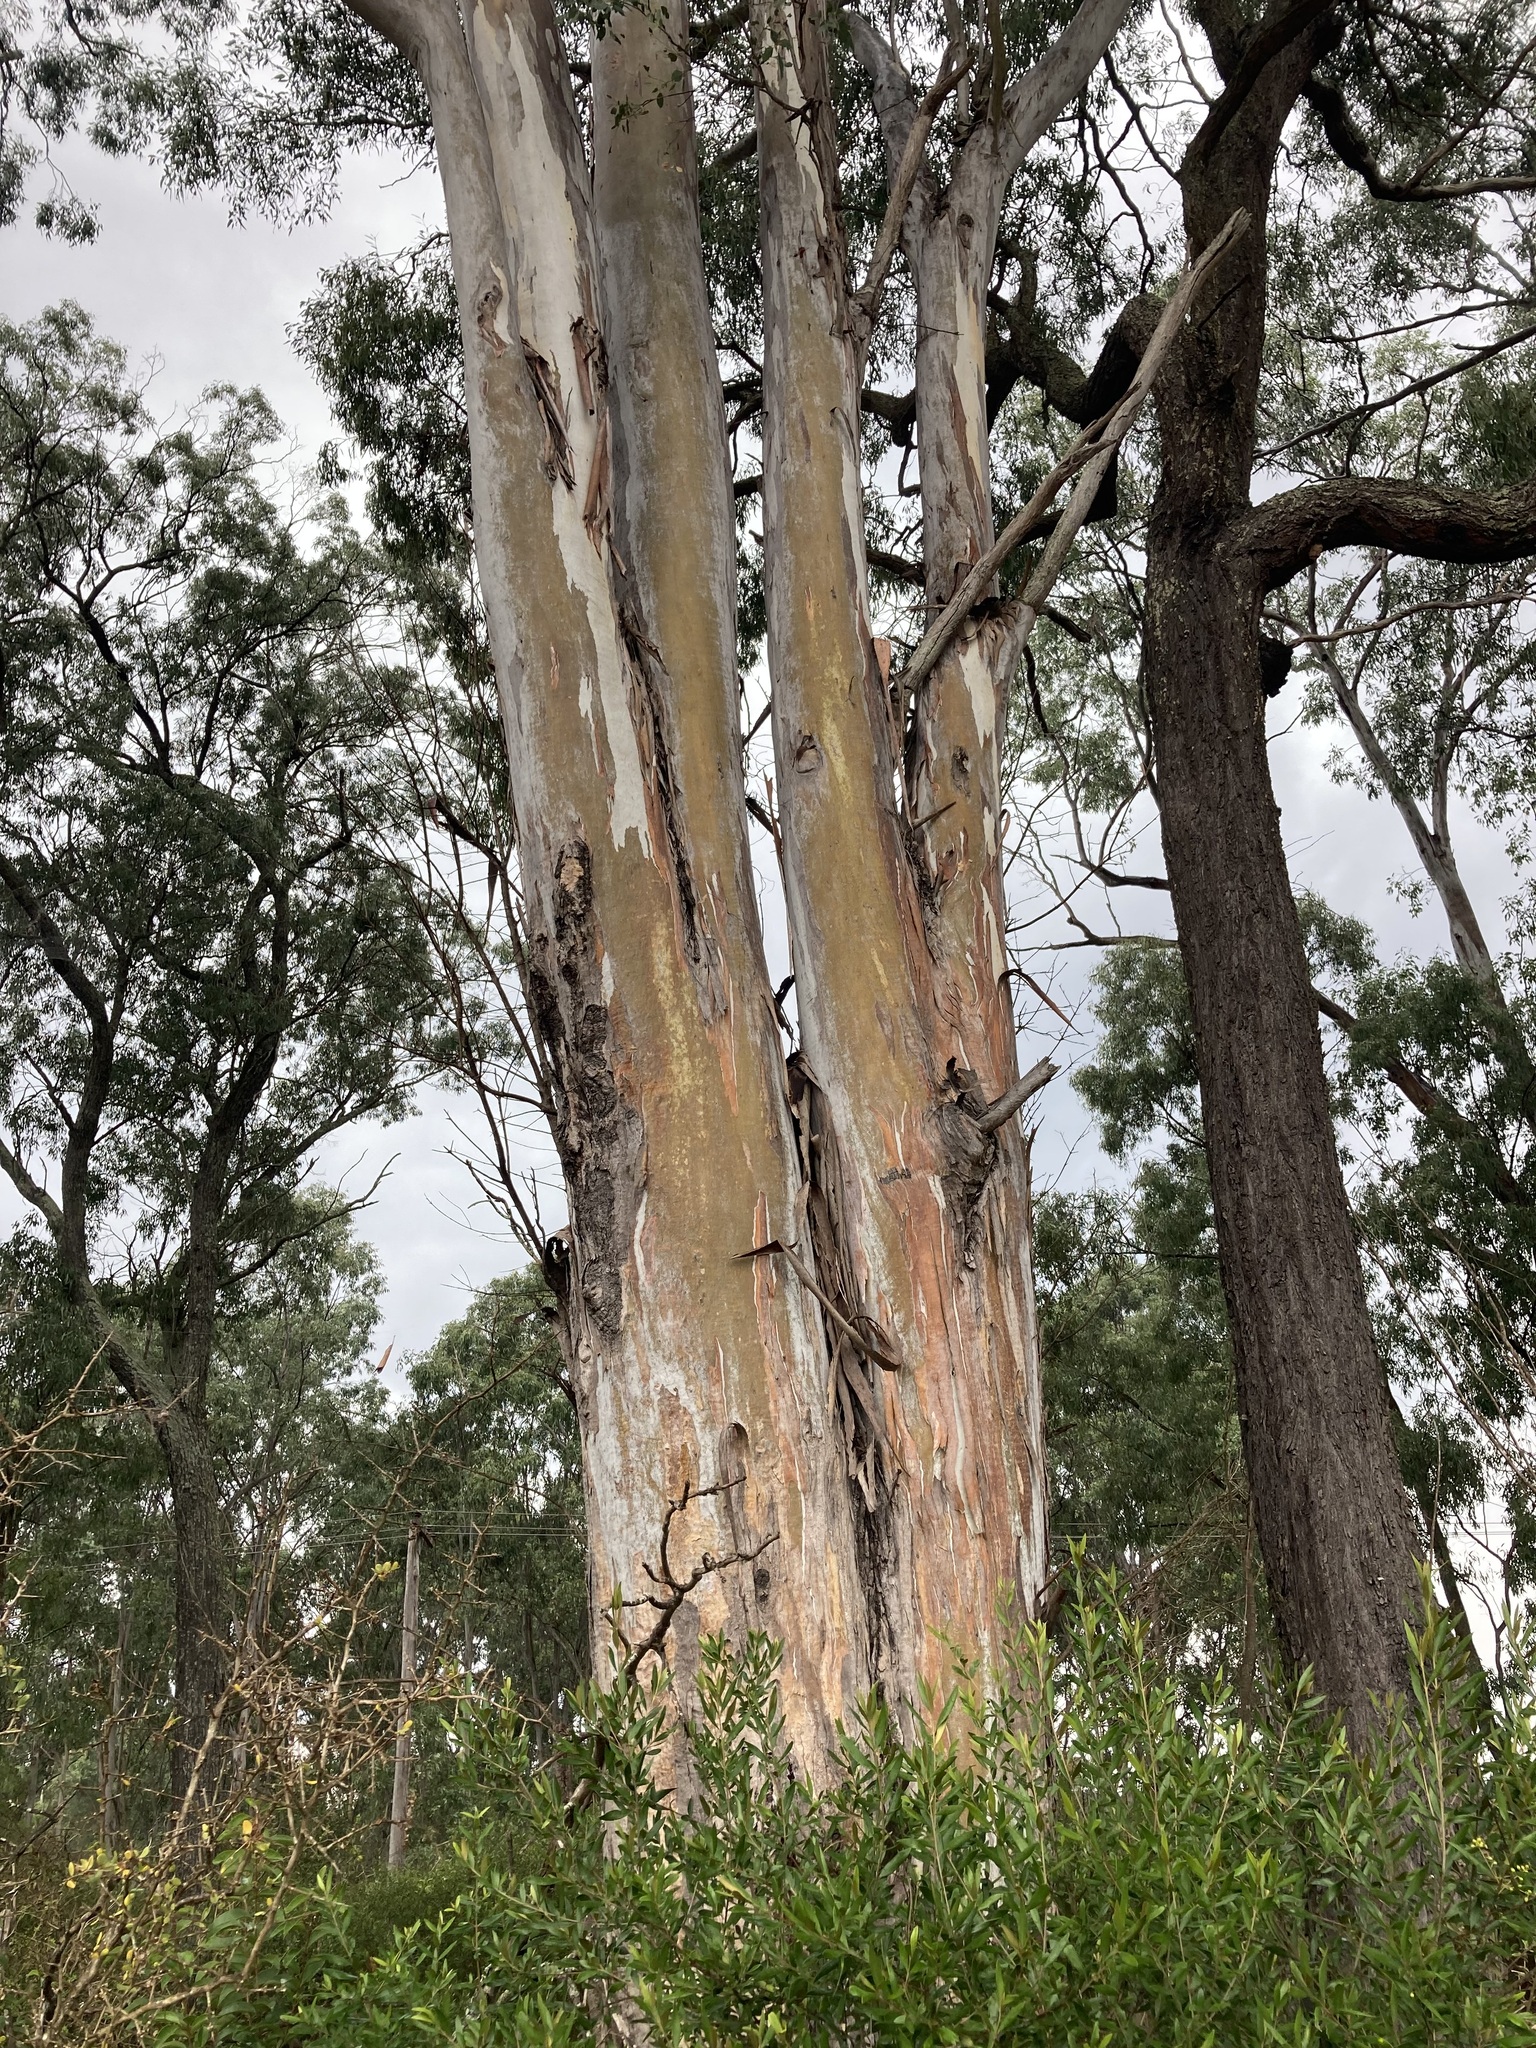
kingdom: Plantae
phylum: Tracheophyta
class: Magnoliopsida
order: Myrtales
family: Myrtaceae
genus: Eucalyptus
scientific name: Eucalyptus punctata
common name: Gray gum
